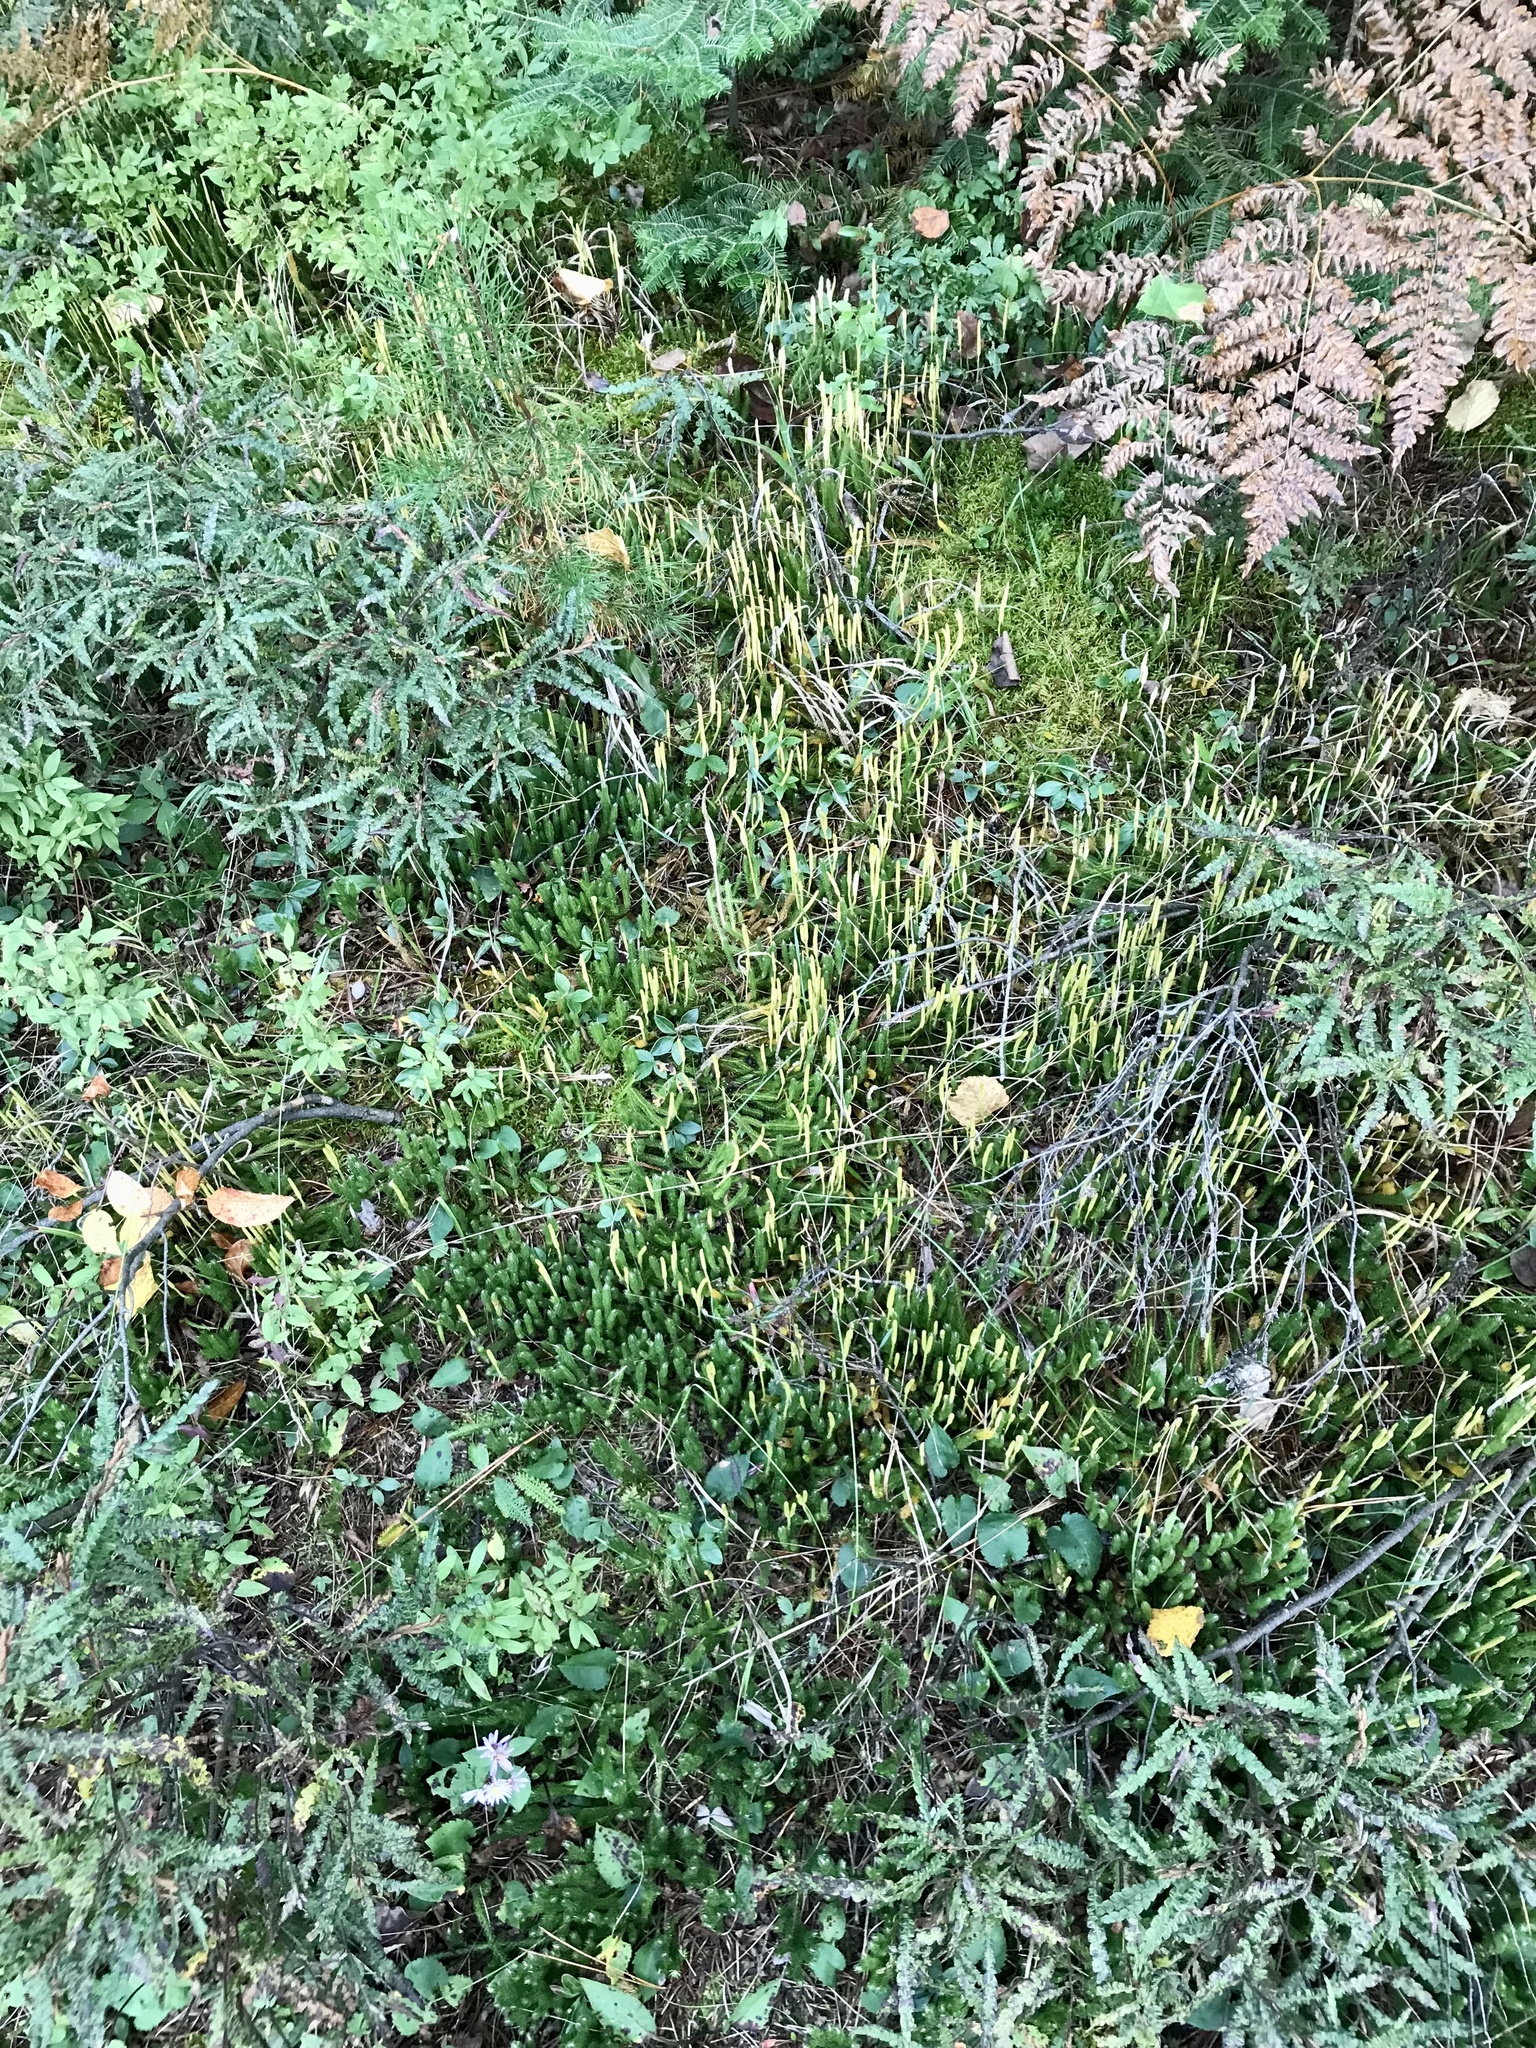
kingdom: Plantae
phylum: Tracheophyta
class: Lycopodiopsida
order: Lycopodiales
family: Lycopodiaceae
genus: Lycopodium
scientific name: Lycopodium lagopus
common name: One-cone clubmoss
